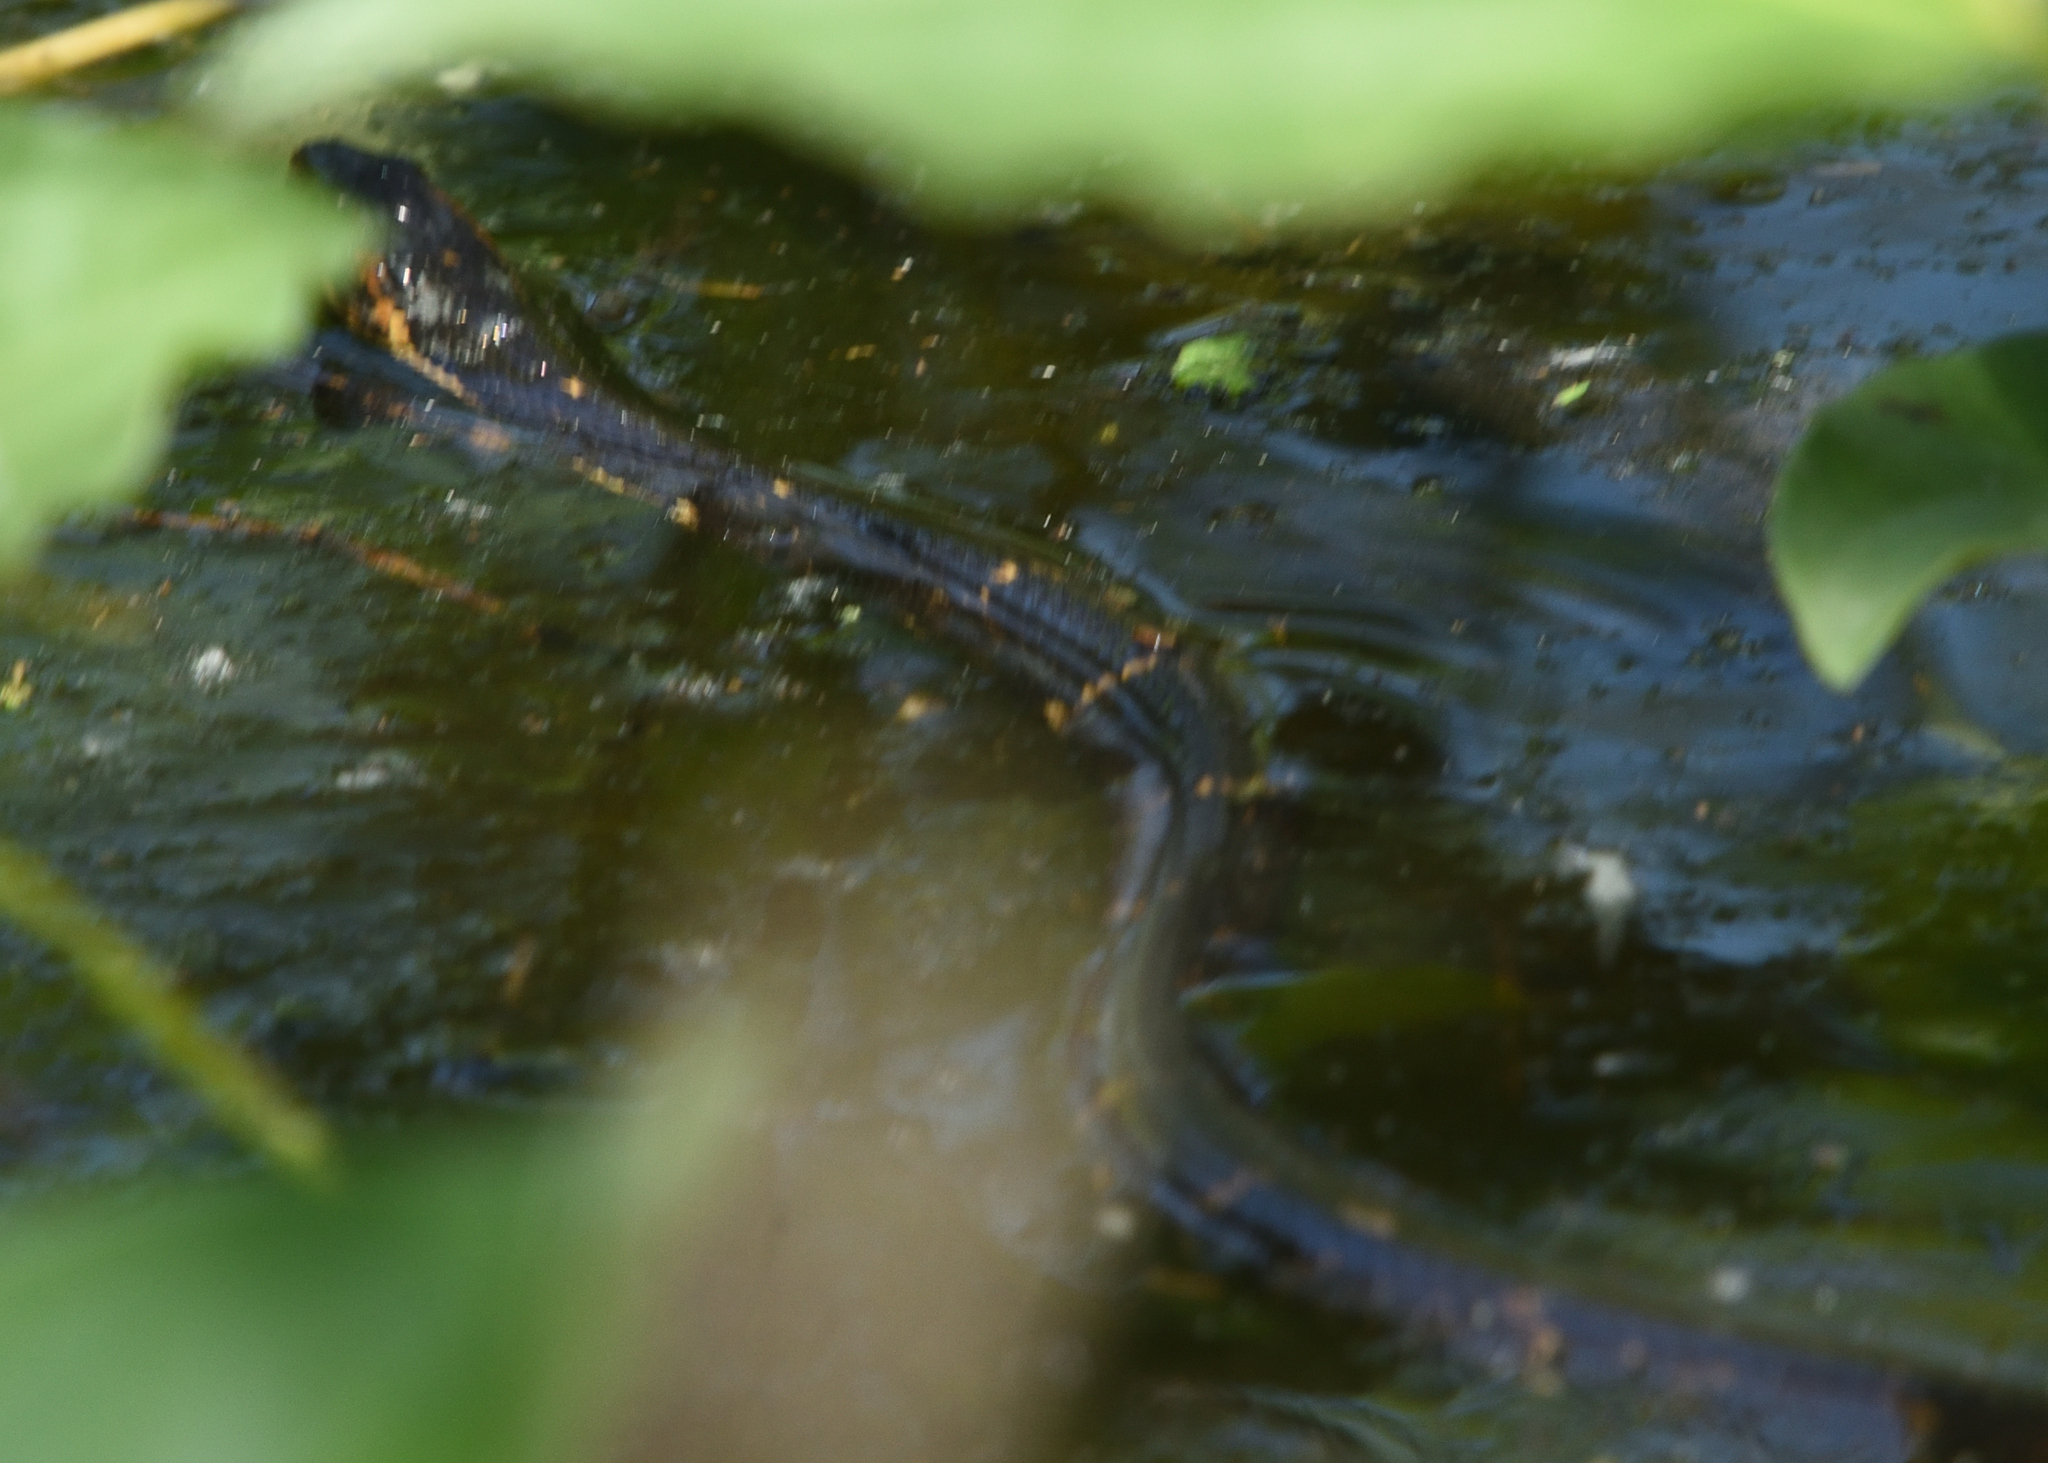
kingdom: Animalia
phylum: Chordata
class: Squamata
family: Colubridae
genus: Nerodia
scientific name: Nerodia fasciata
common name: Southern water snake
